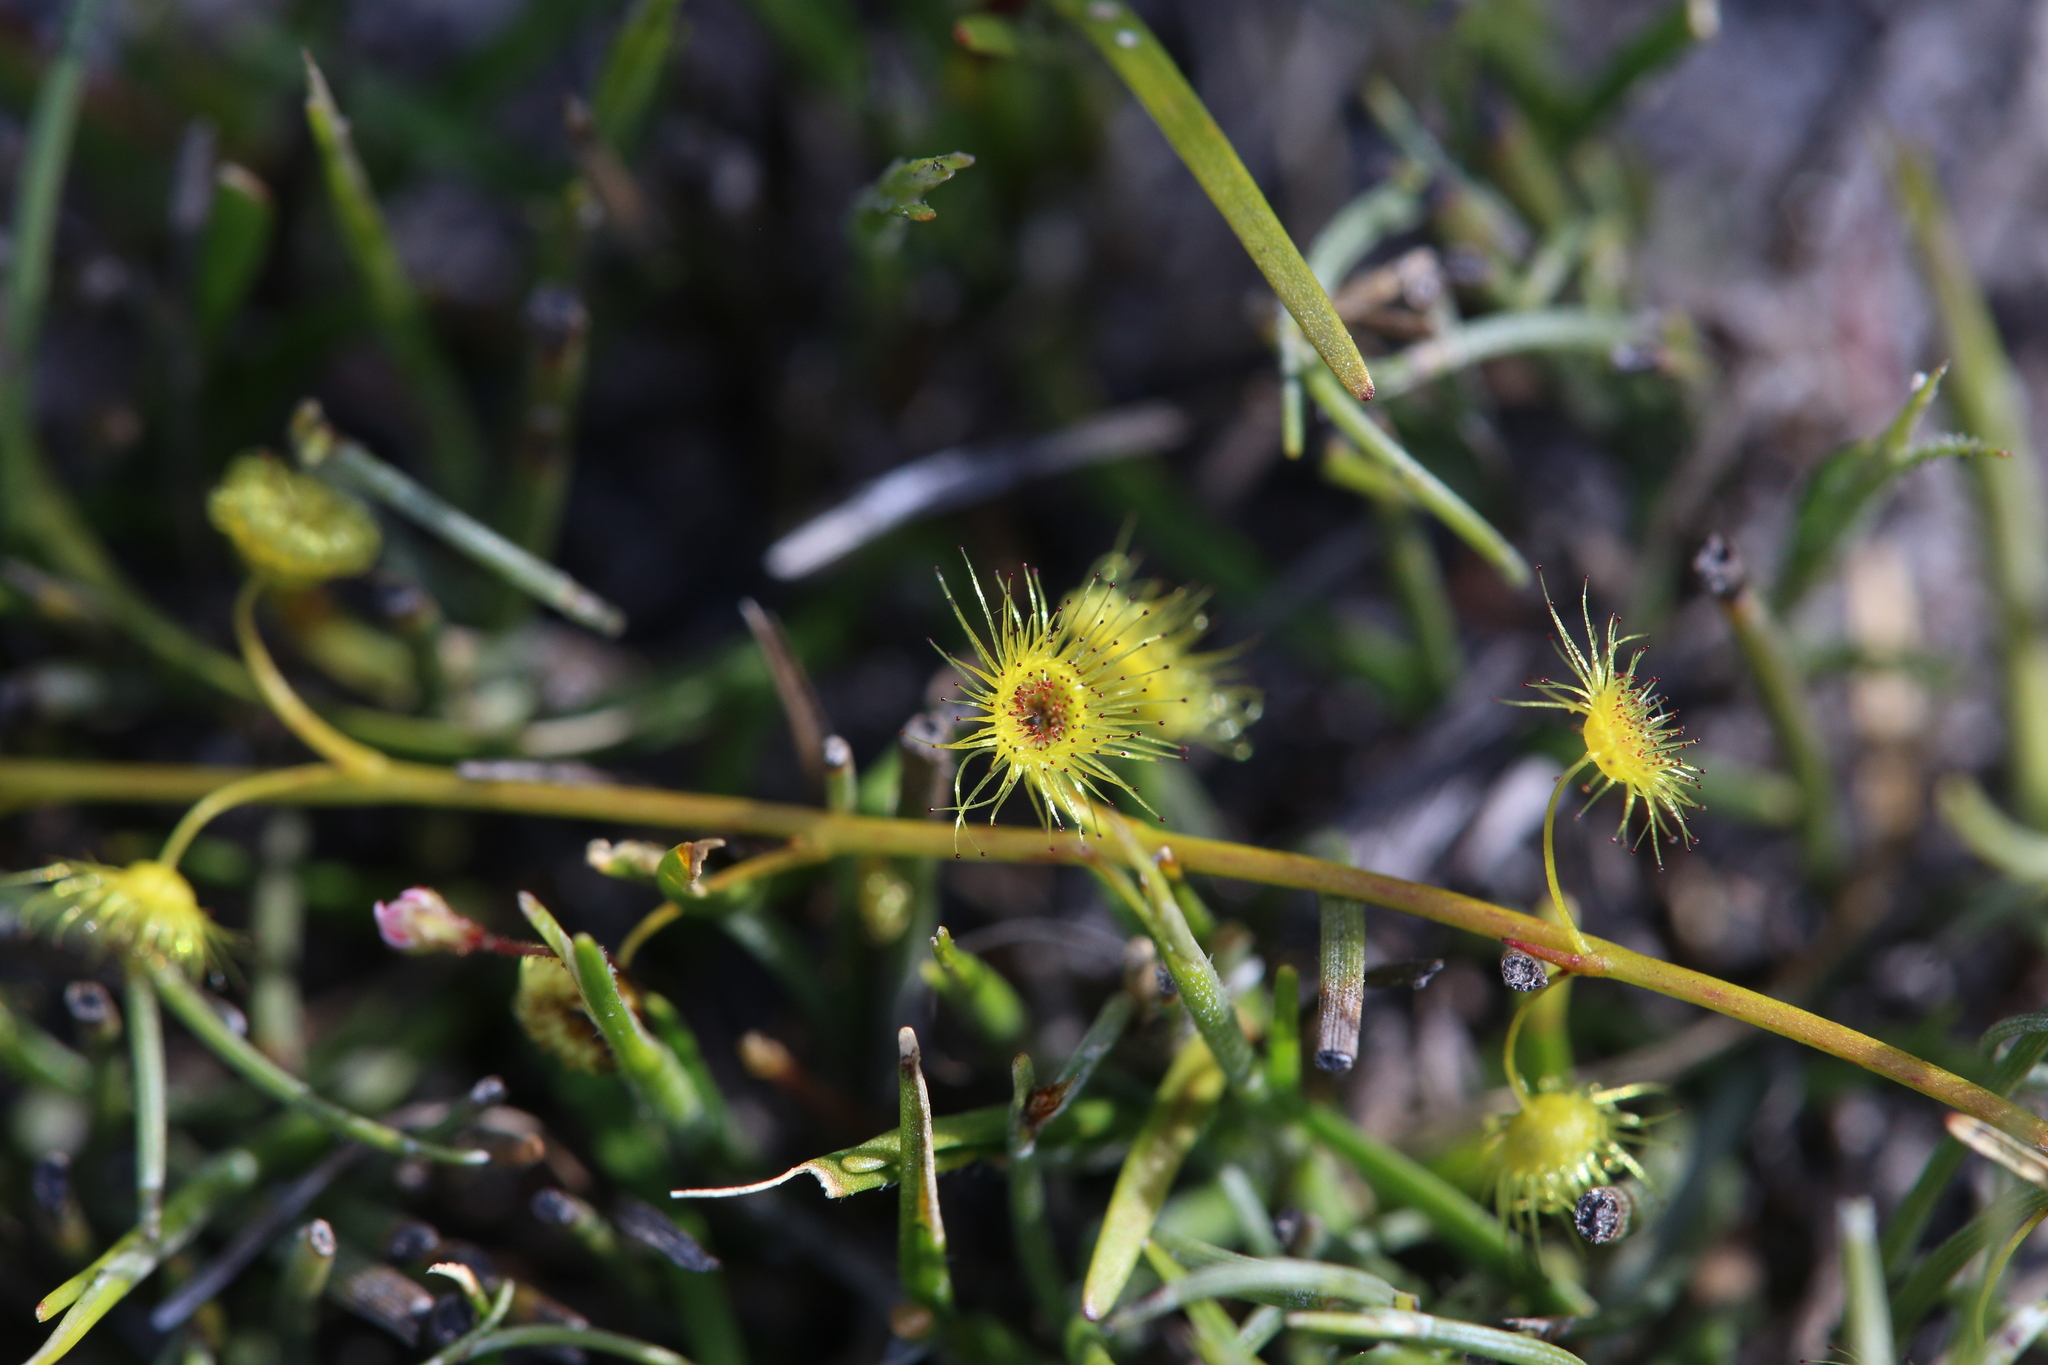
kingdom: Plantae
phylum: Tracheophyta
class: Magnoliopsida
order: Caryophyllales
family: Droseraceae
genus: Drosera
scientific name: Drosera myriantha
